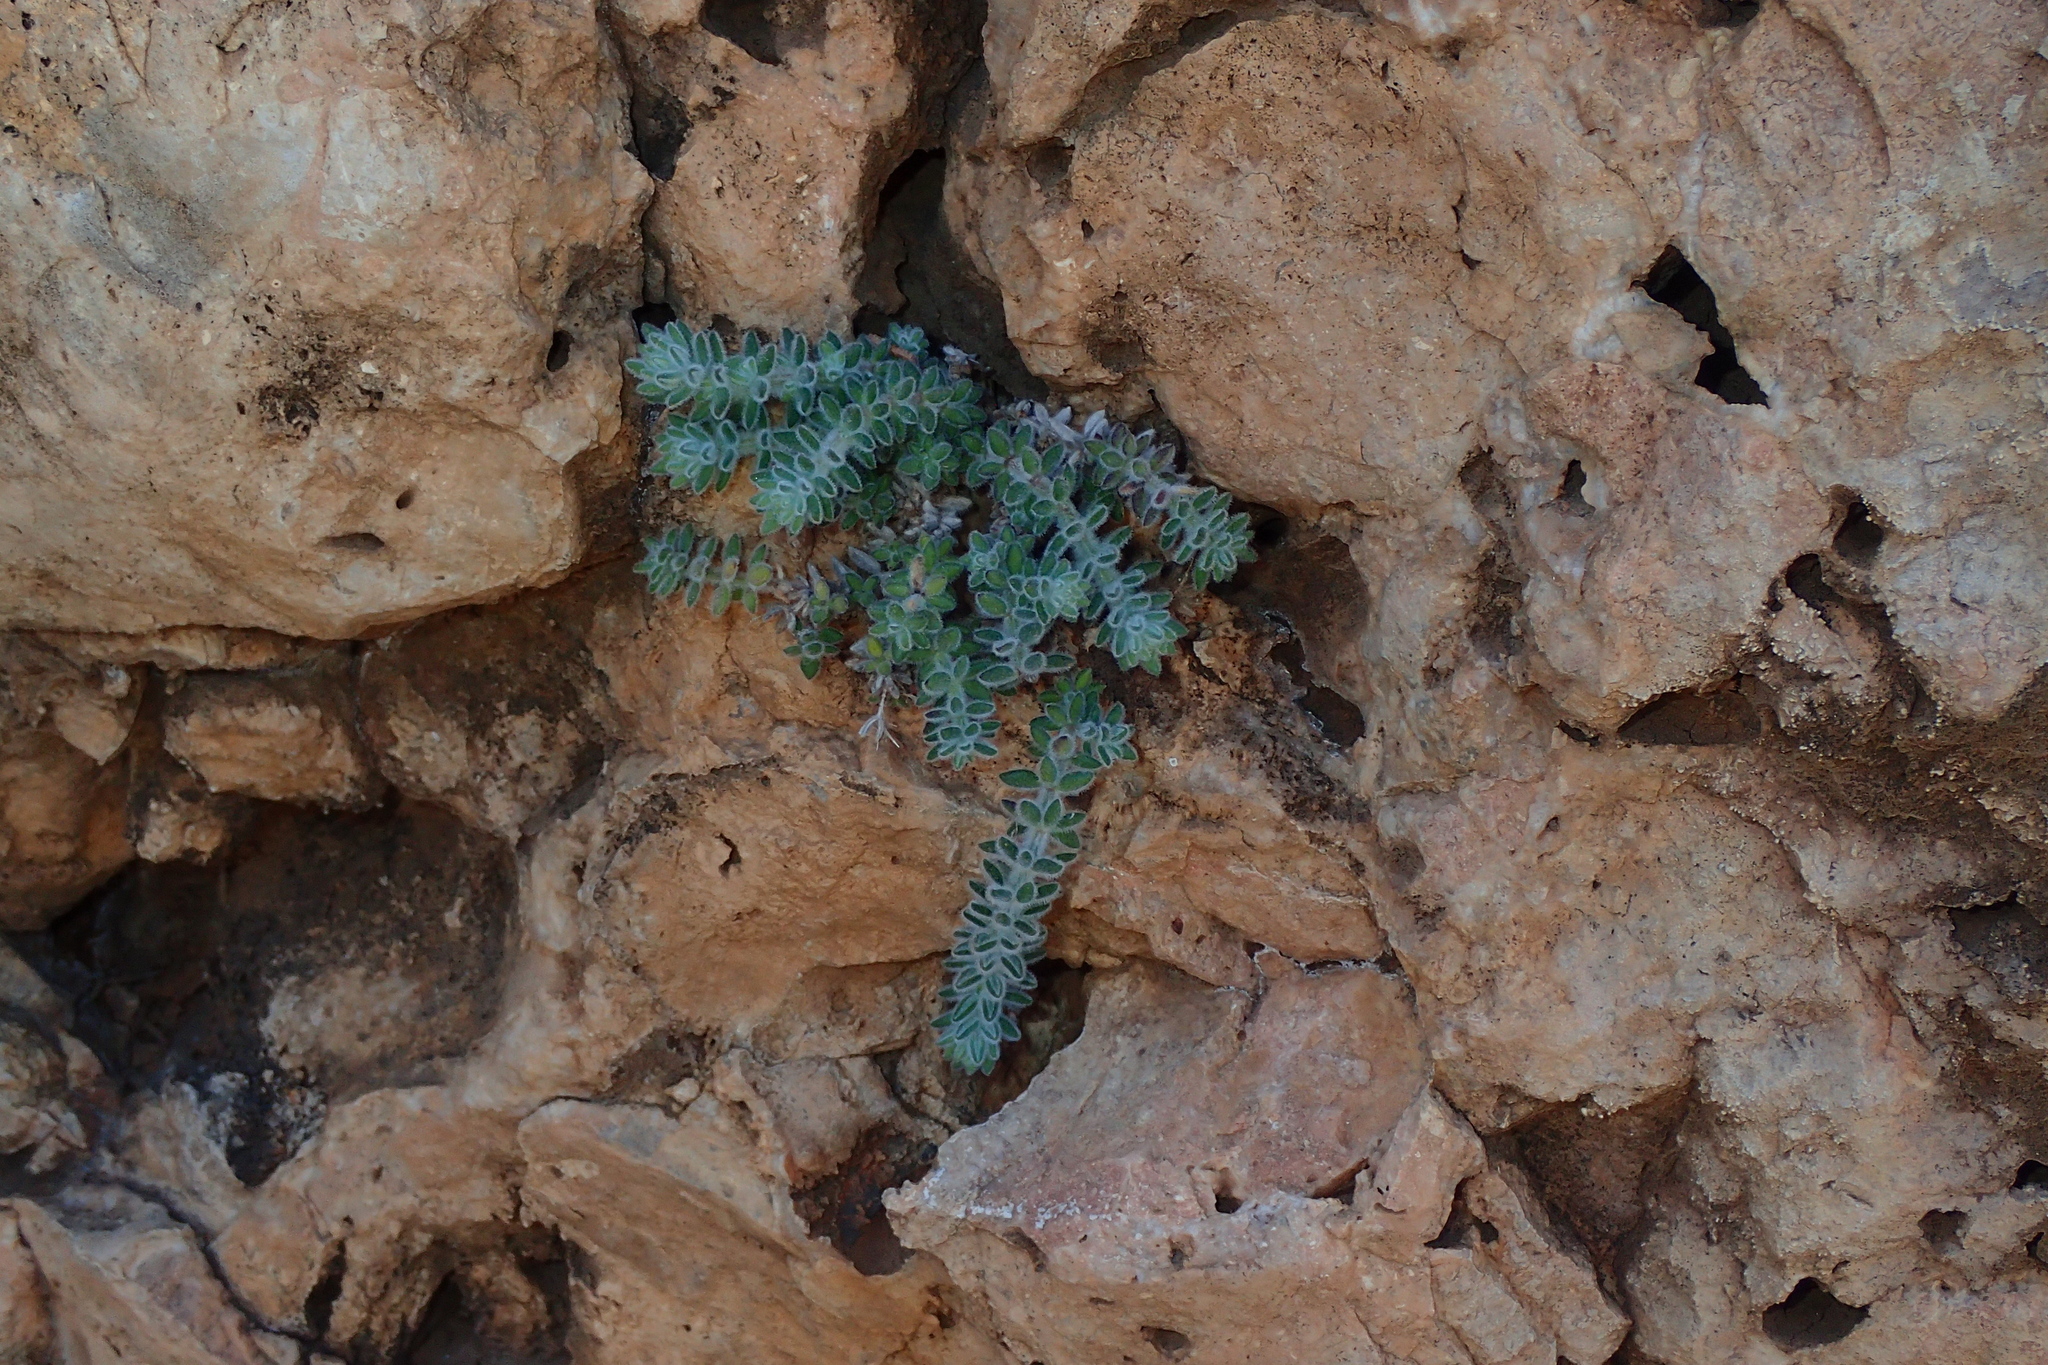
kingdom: Plantae
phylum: Tracheophyta
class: Magnoliopsida
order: Gentianales
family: Rubiaceae
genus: Galium
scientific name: Galium canum
